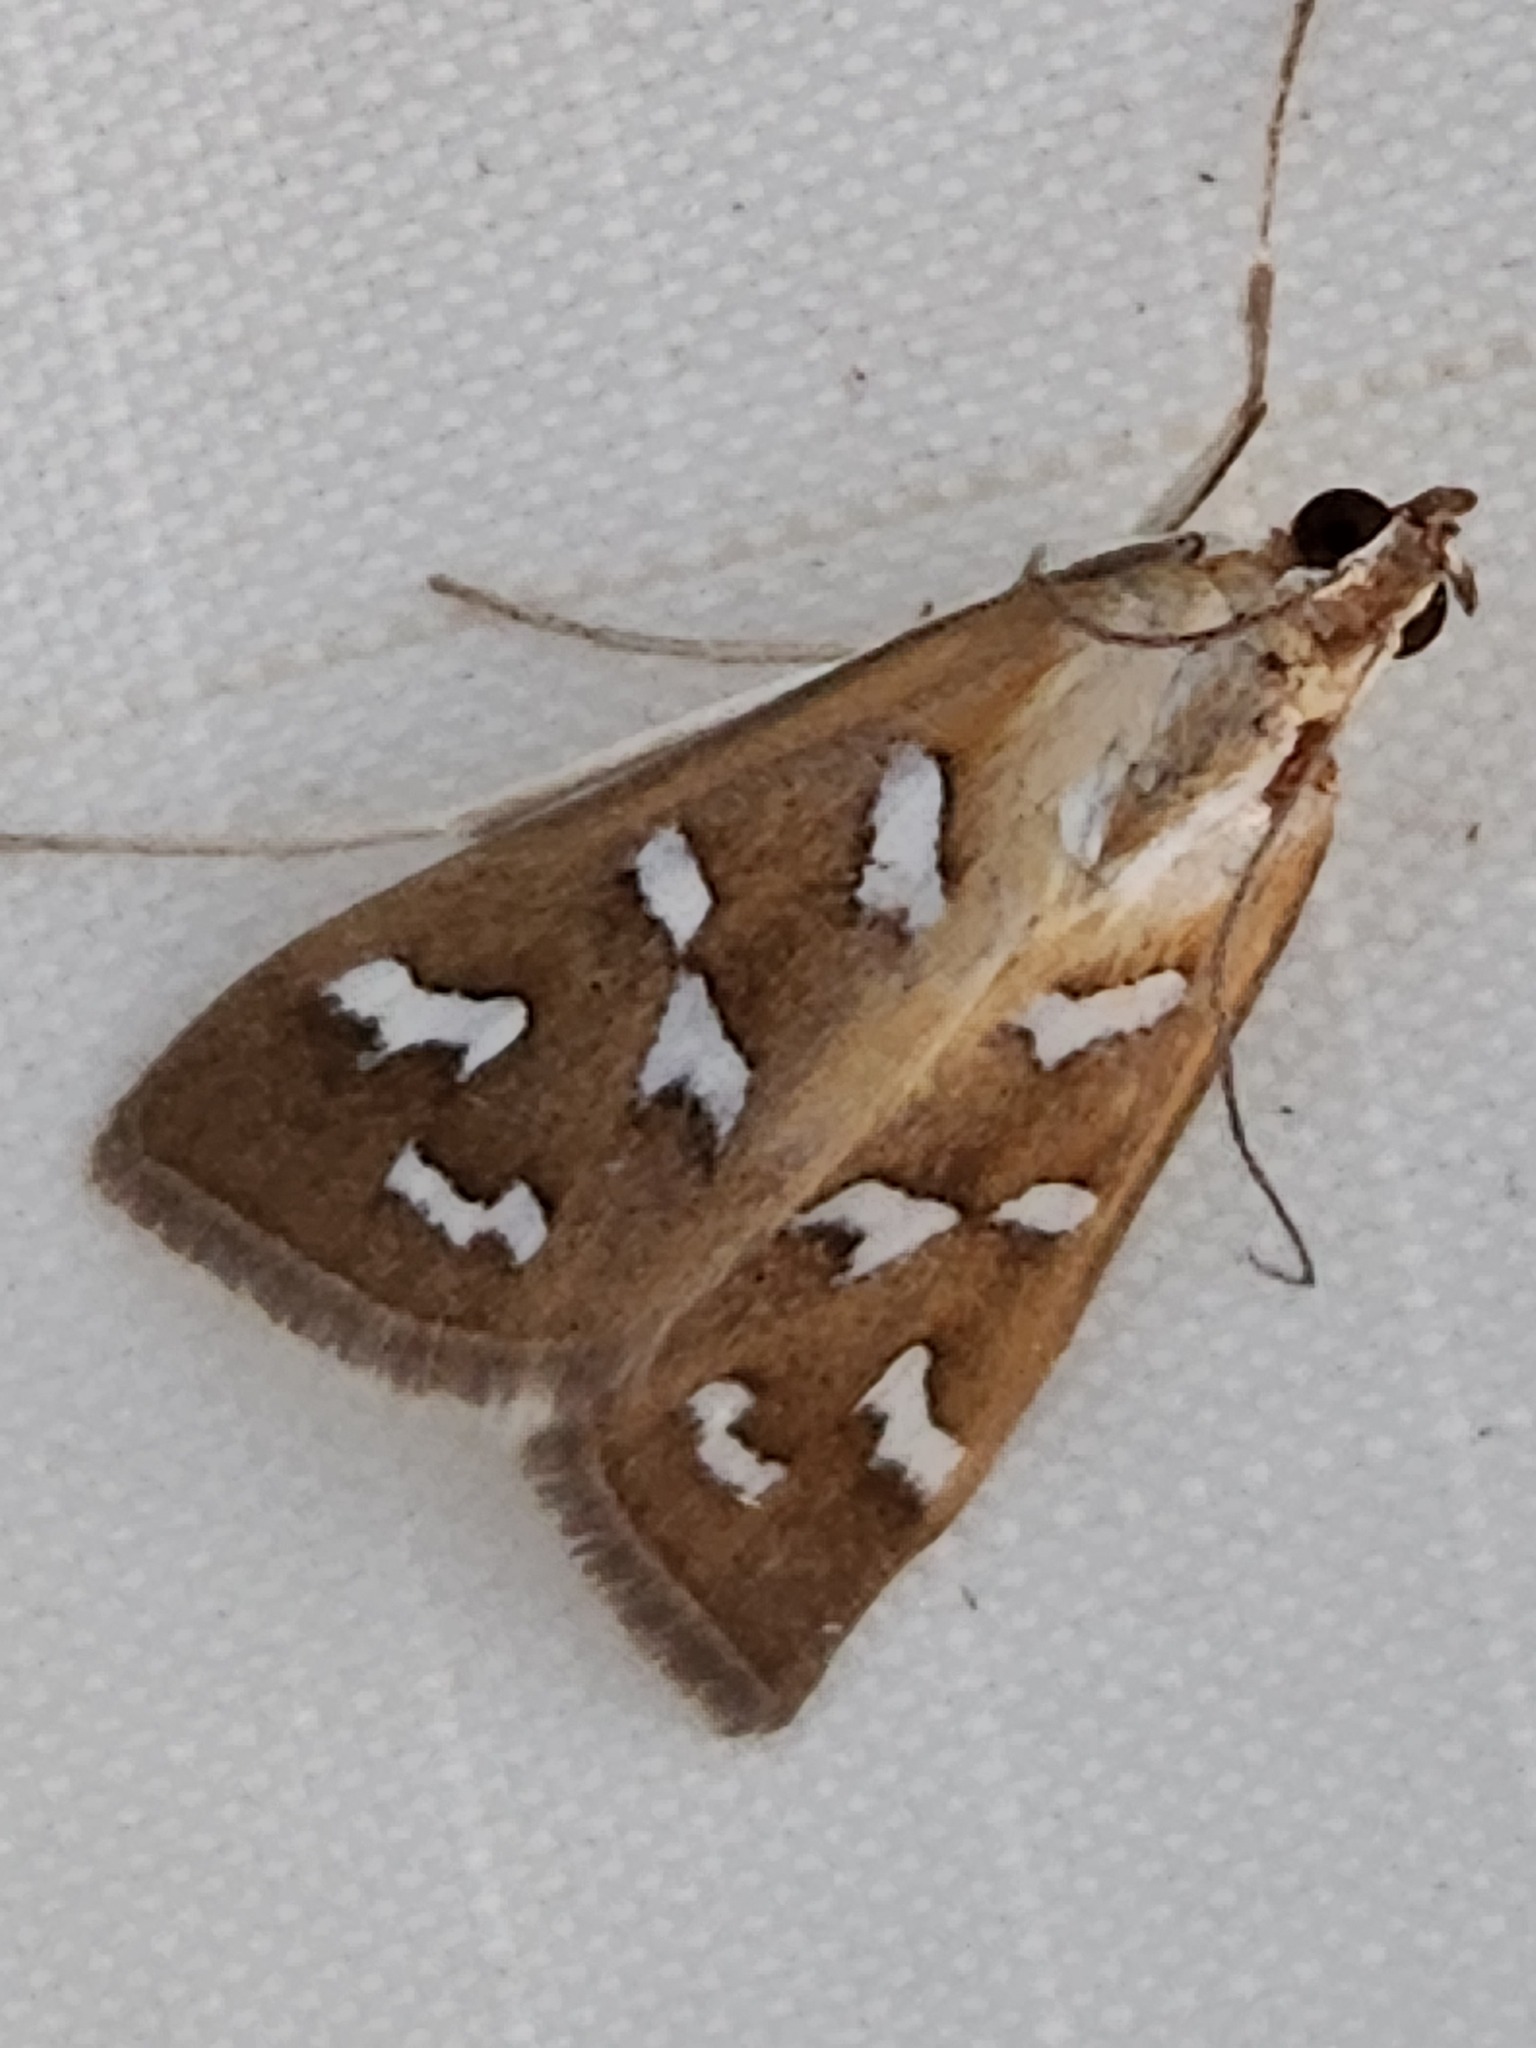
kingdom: Animalia
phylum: Arthropoda
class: Insecta
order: Lepidoptera
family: Crambidae
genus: Diastictis
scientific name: Diastictis fracturalis
